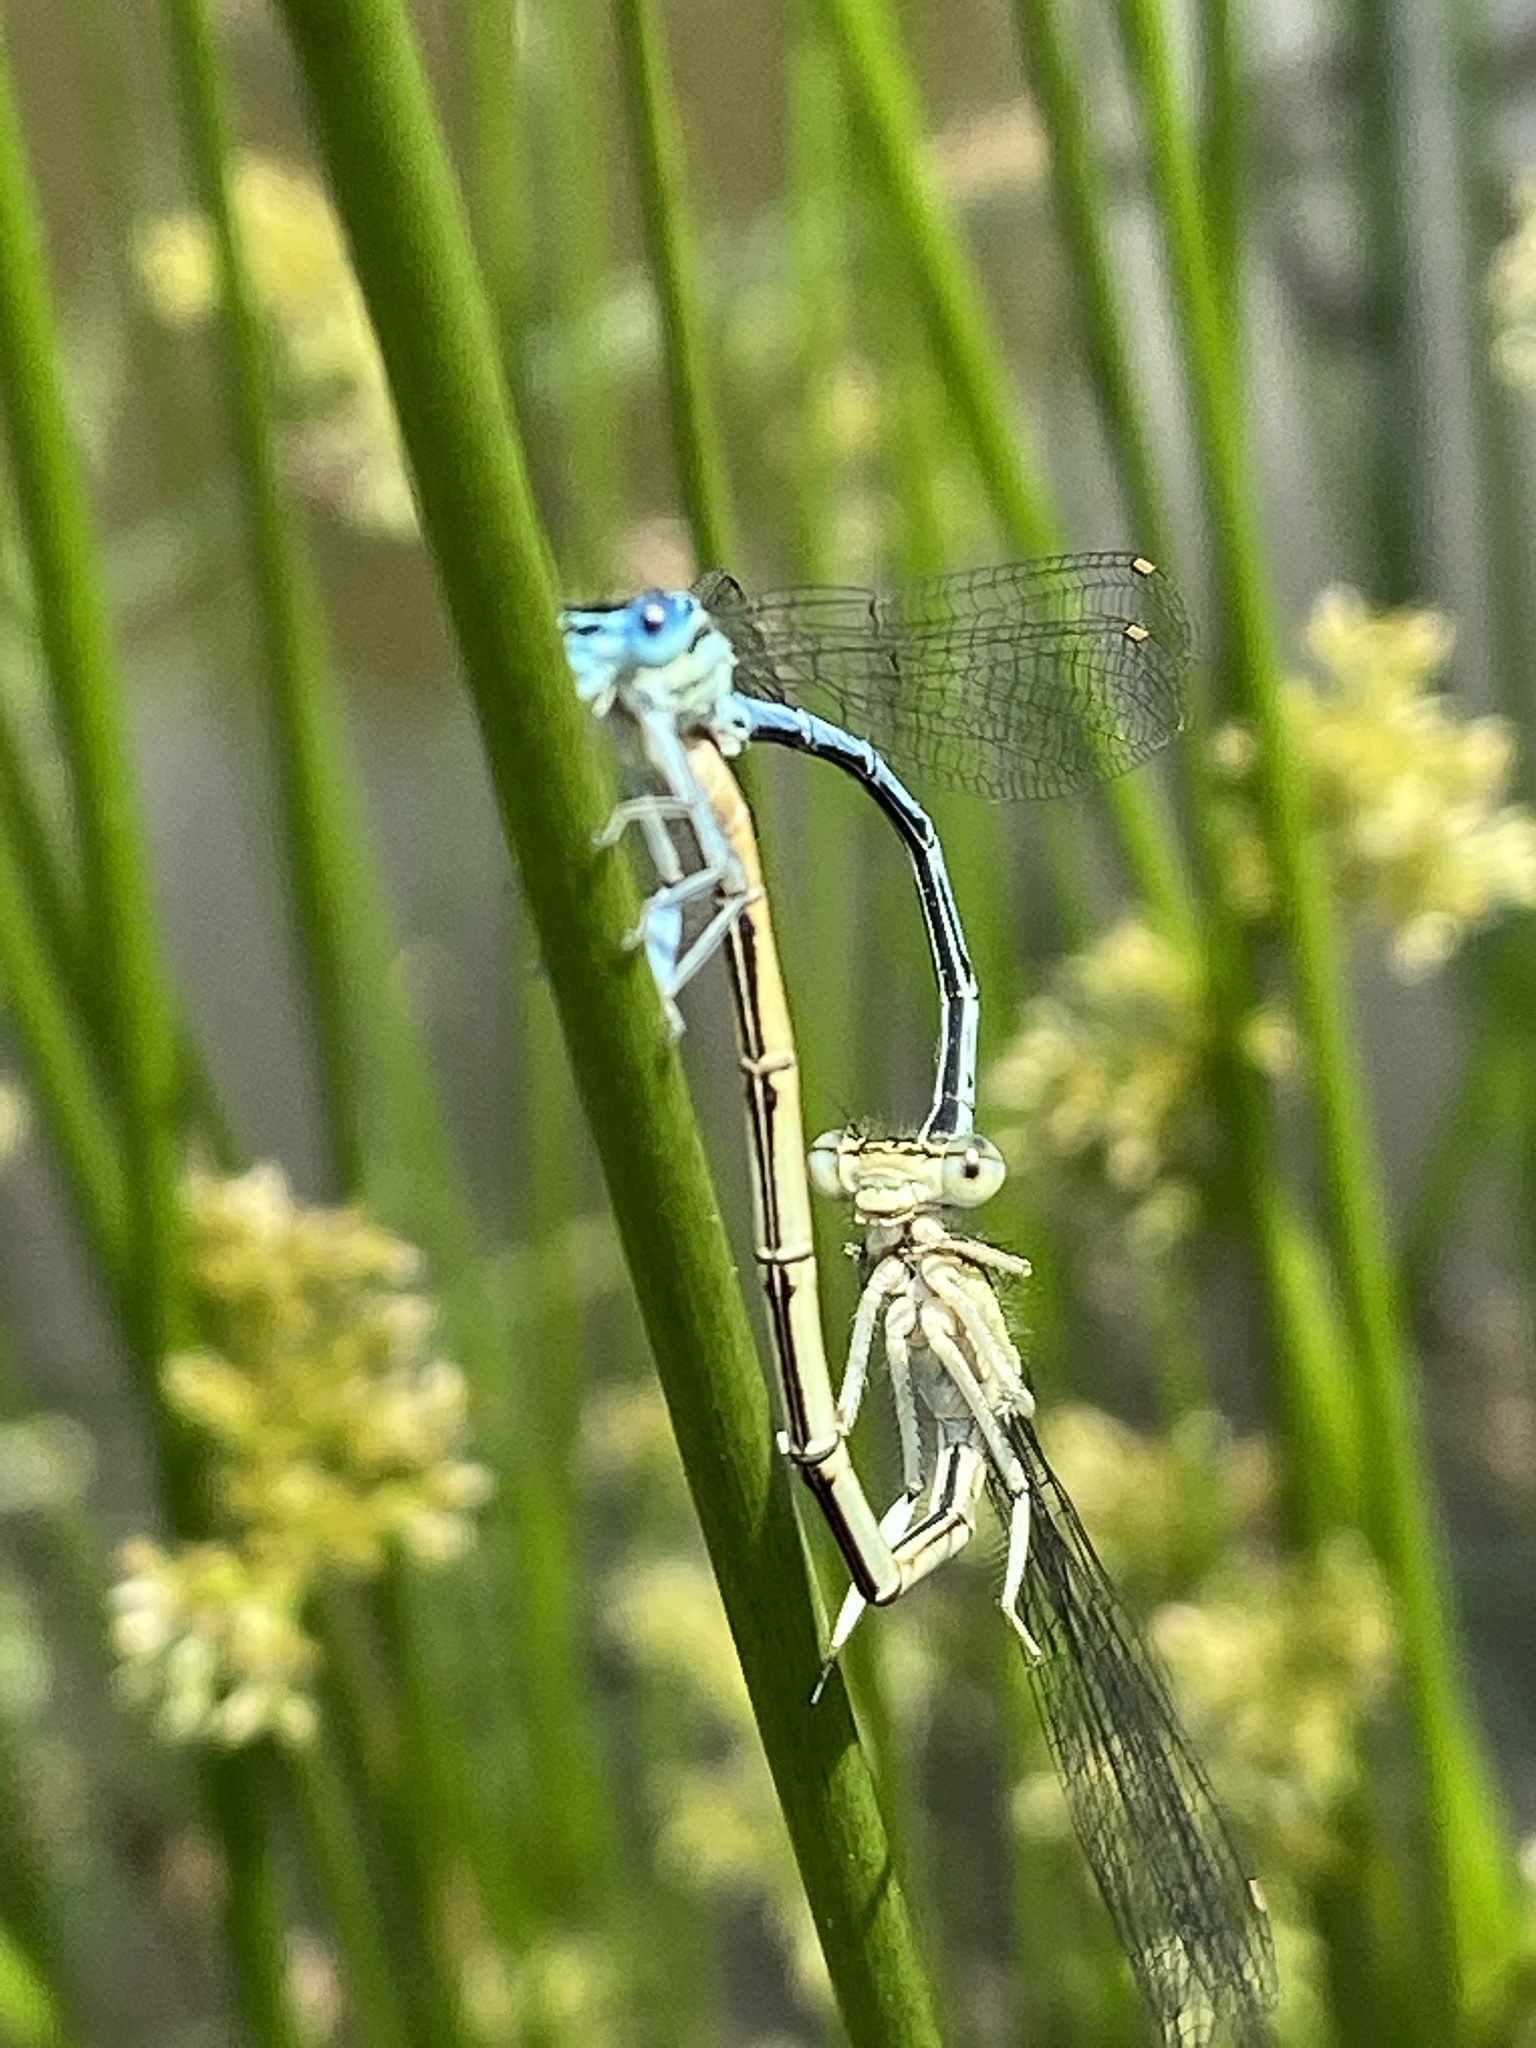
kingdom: Animalia
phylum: Arthropoda
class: Insecta
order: Odonata
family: Platycnemididae
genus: Platycnemis
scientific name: Platycnemis pennipes
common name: White-legged damselfly
